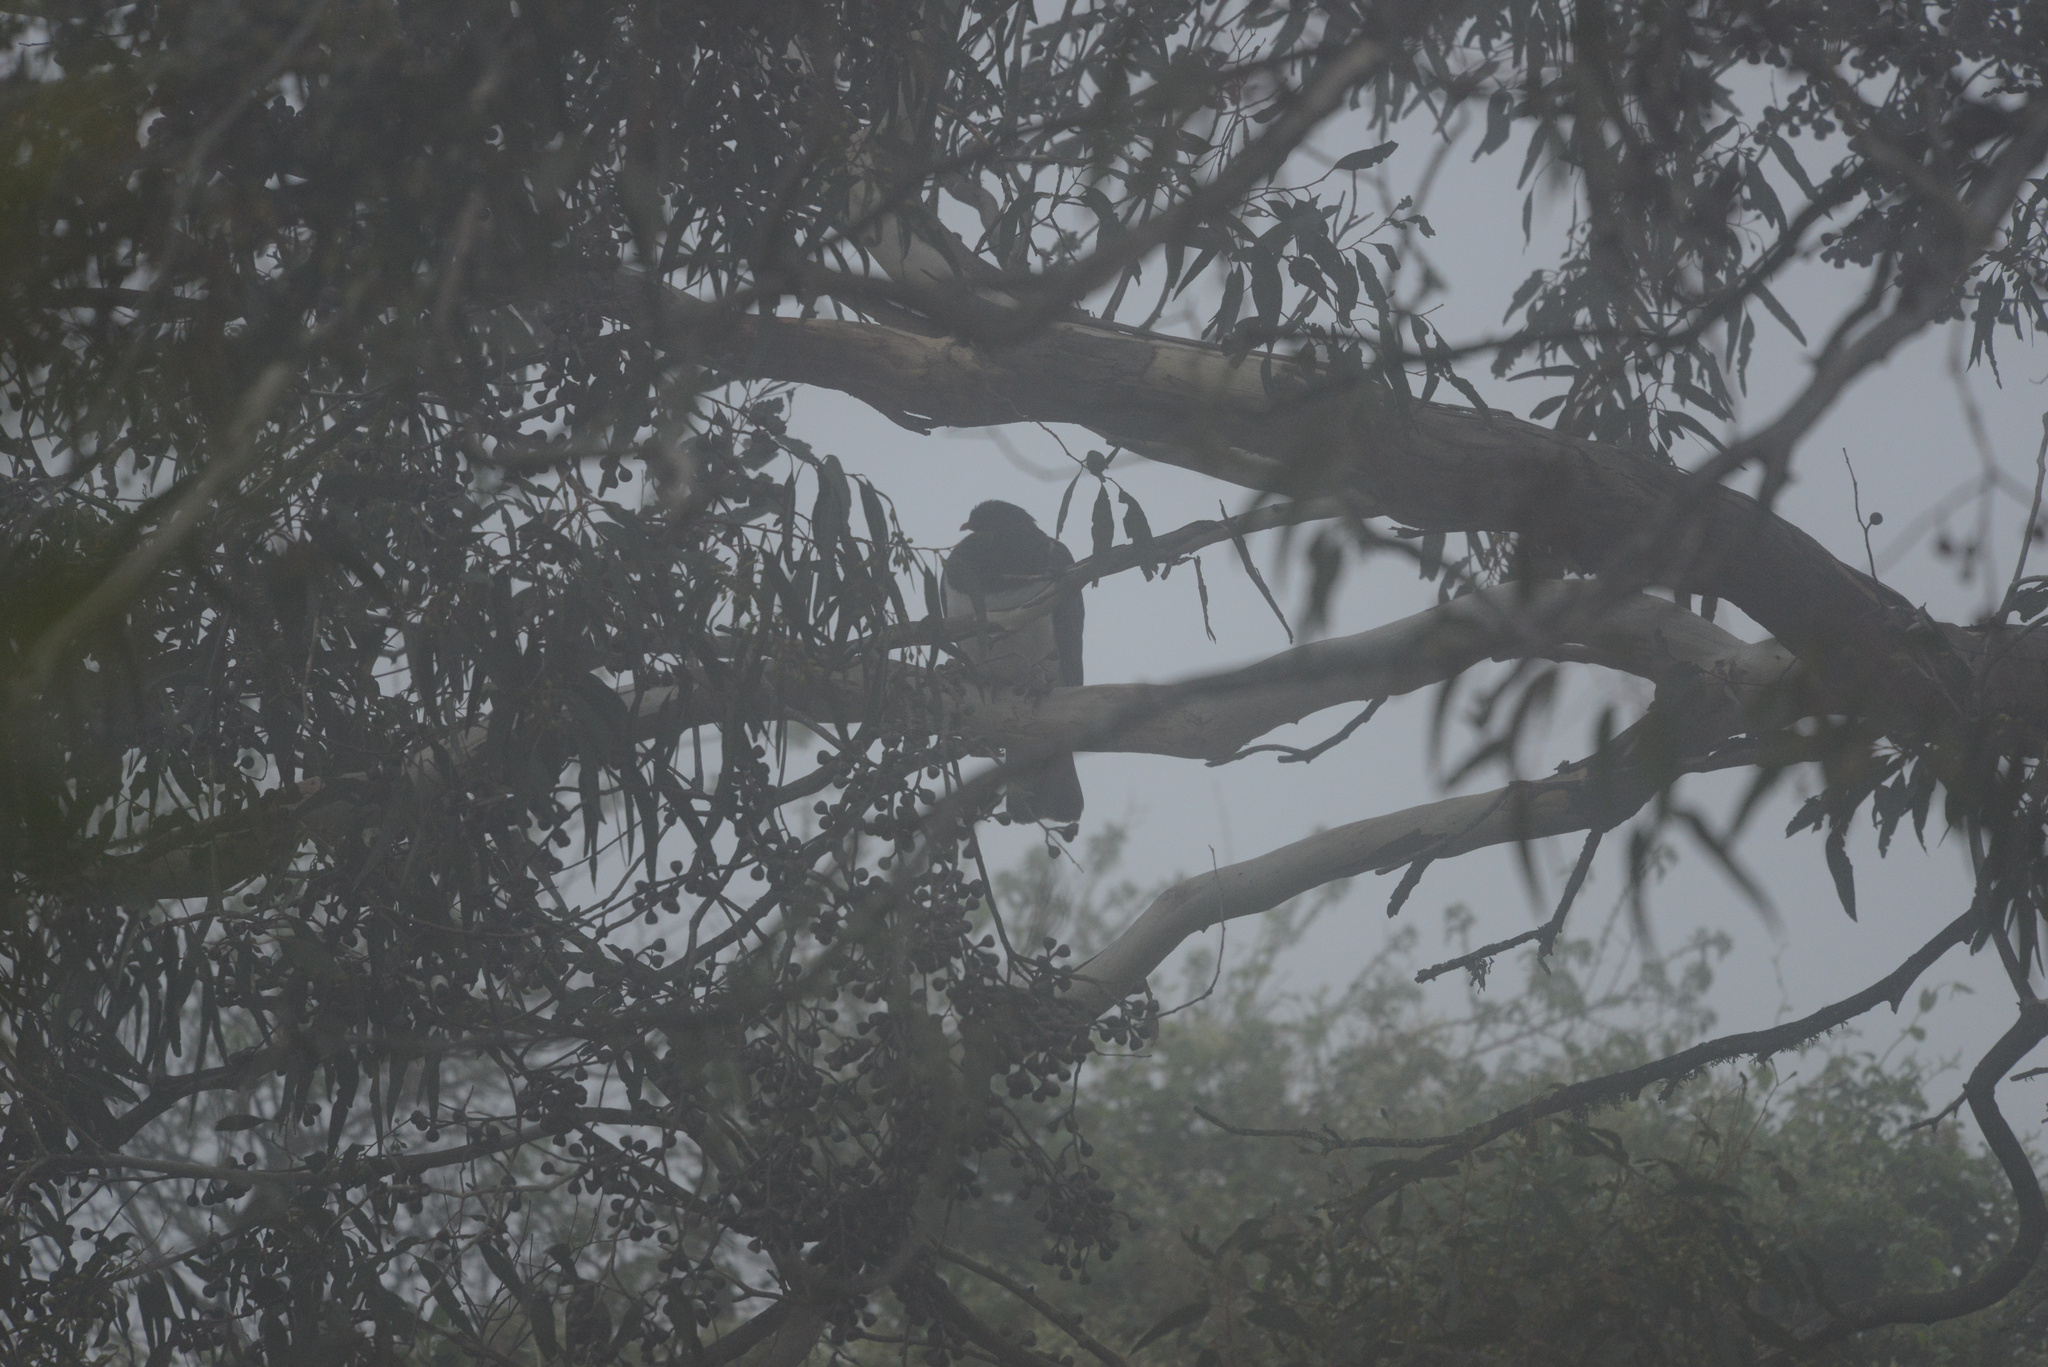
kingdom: Animalia
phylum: Chordata
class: Aves
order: Columbiformes
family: Columbidae
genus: Hemiphaga
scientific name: Hemiphaga novaeseelandiae
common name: New zealand pigeon
